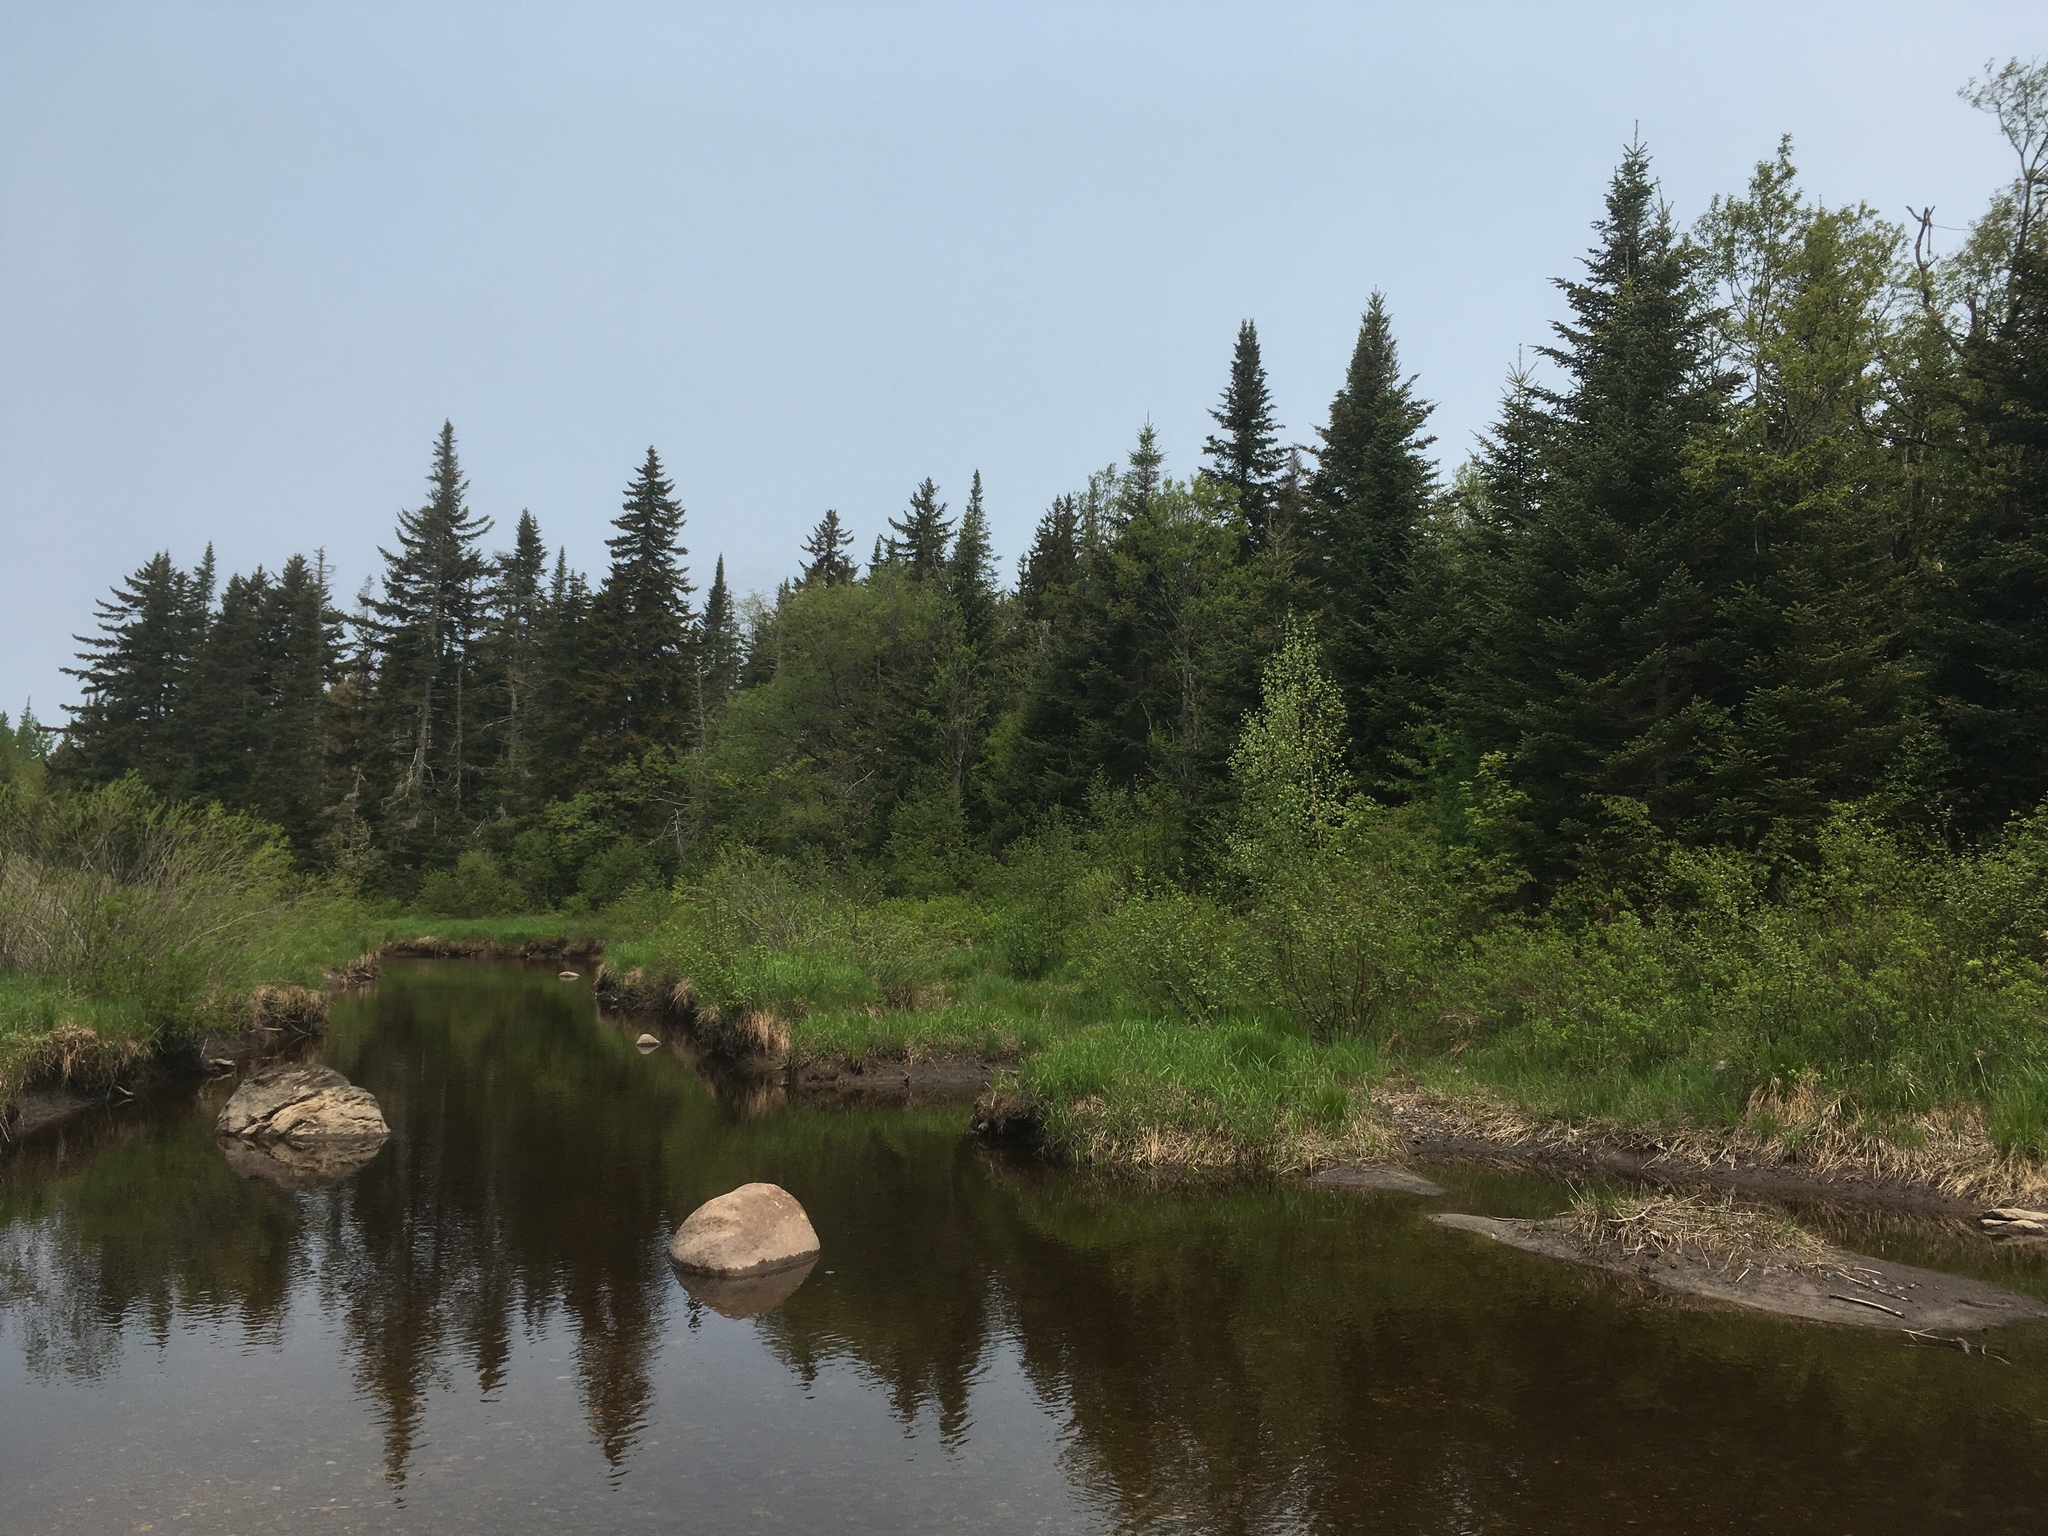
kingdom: Plantae
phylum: Tracheophyta
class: Pinopsida
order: Pinales
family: Pinaceae
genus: Abies
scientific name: Abies balsamea
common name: Balsam fir
